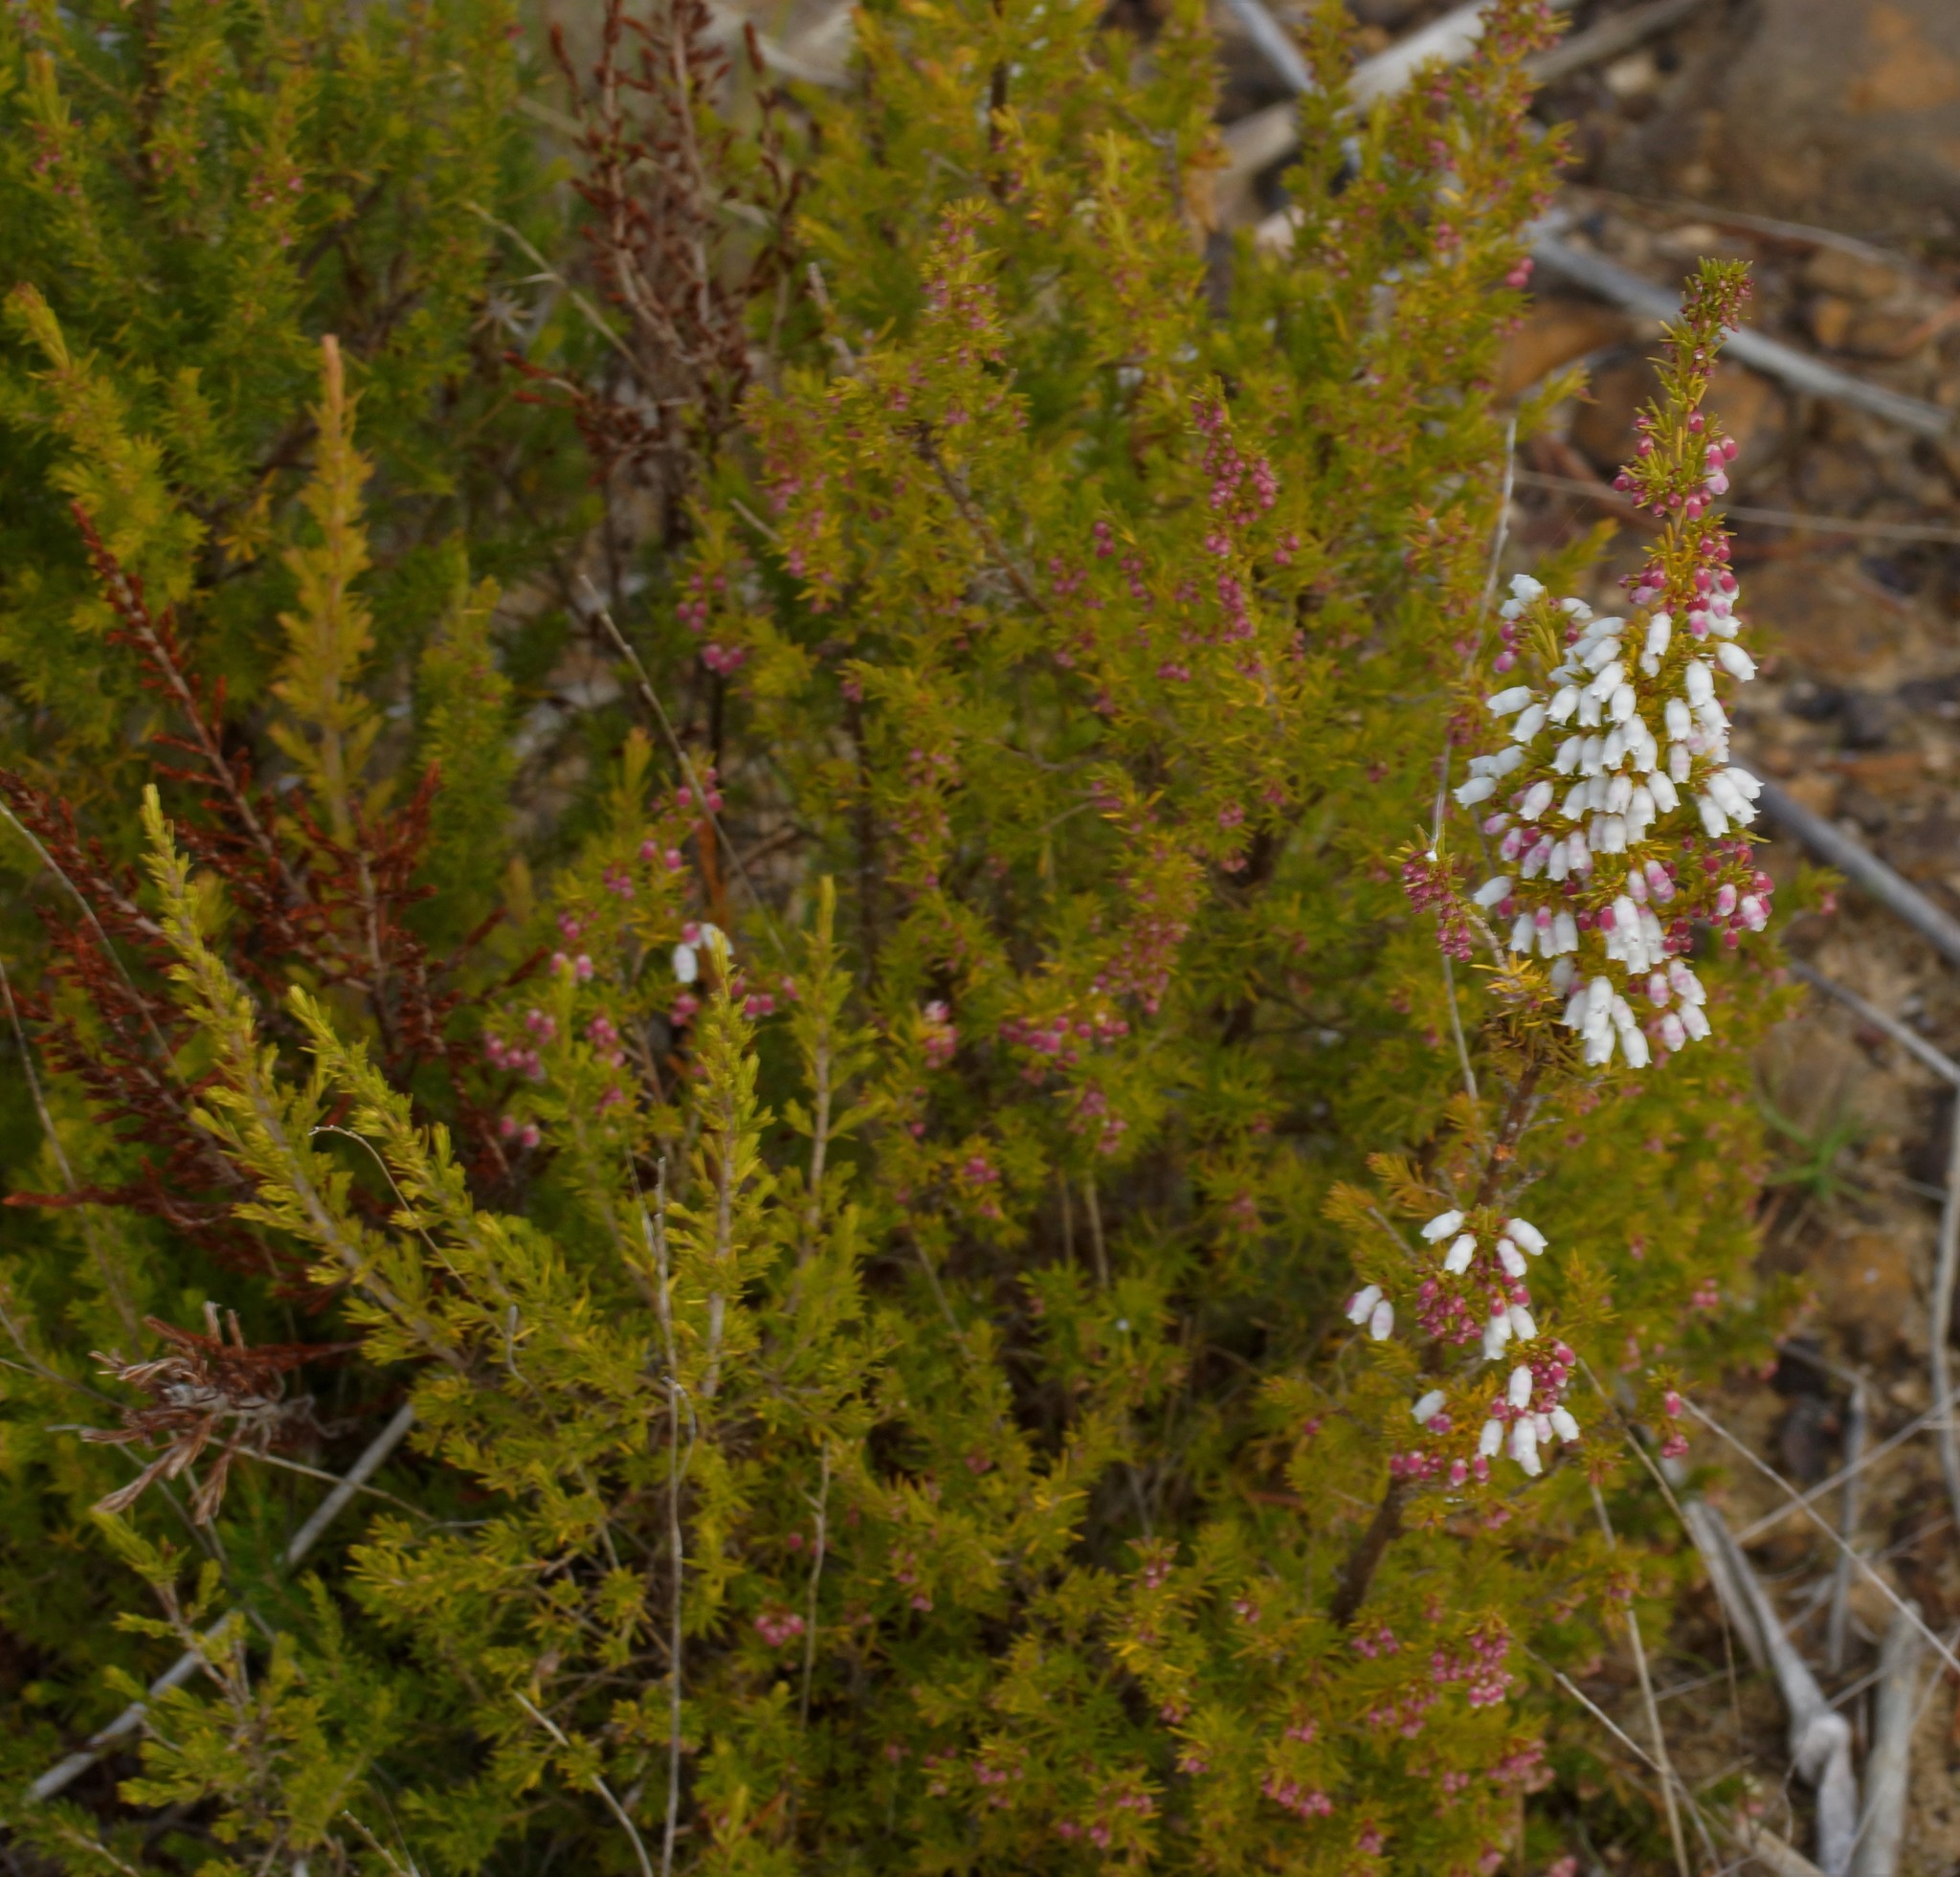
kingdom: Plantae
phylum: Tracheophyta
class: Magnoliopsida
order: Ericales
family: Ericaceae
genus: Erica
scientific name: Erica lusitanica
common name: Spanish heath
